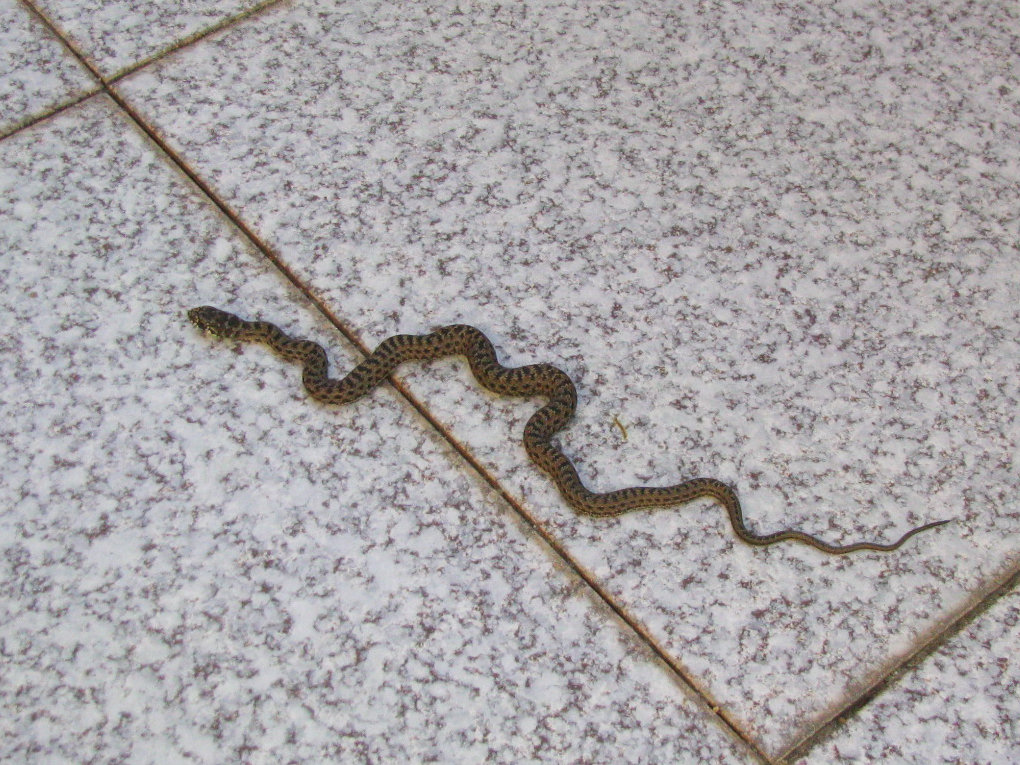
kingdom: Animalia
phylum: Chordata
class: Squamata
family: Psammophiidae
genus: Malpolon
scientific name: Malpolon monspessulanus
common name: Montpellier snake
